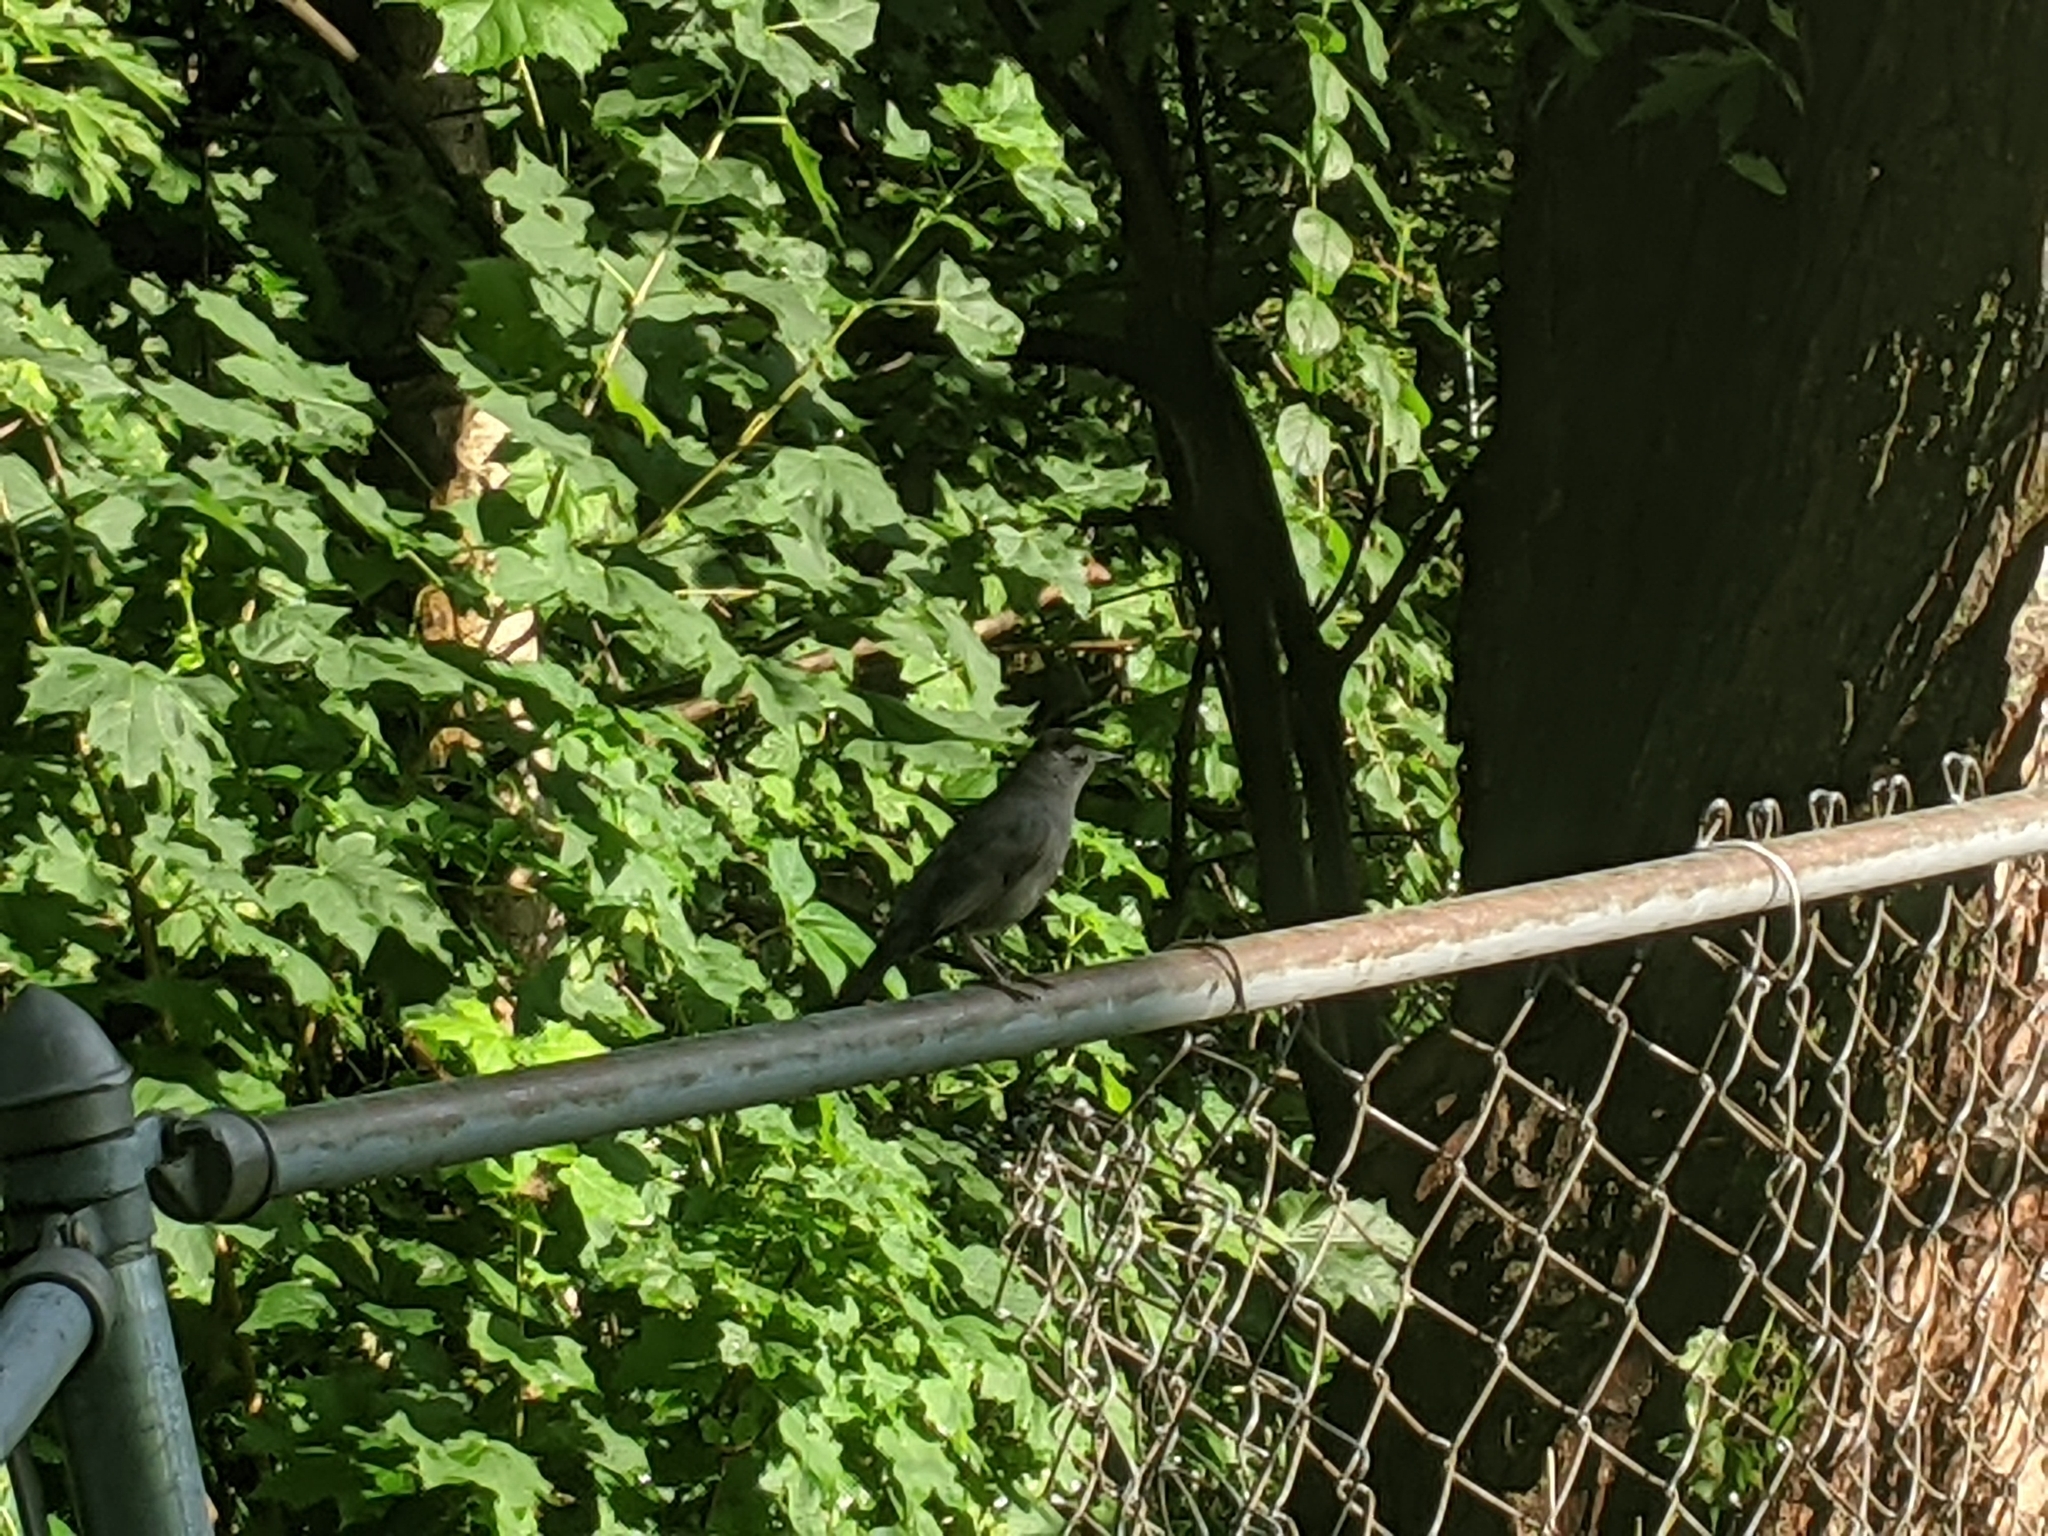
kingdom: Animalia
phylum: Chordata
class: Aves
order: Passeriformes
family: Mimidae
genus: Dumetella
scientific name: Dumetella carolinensis
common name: Gray catbird
